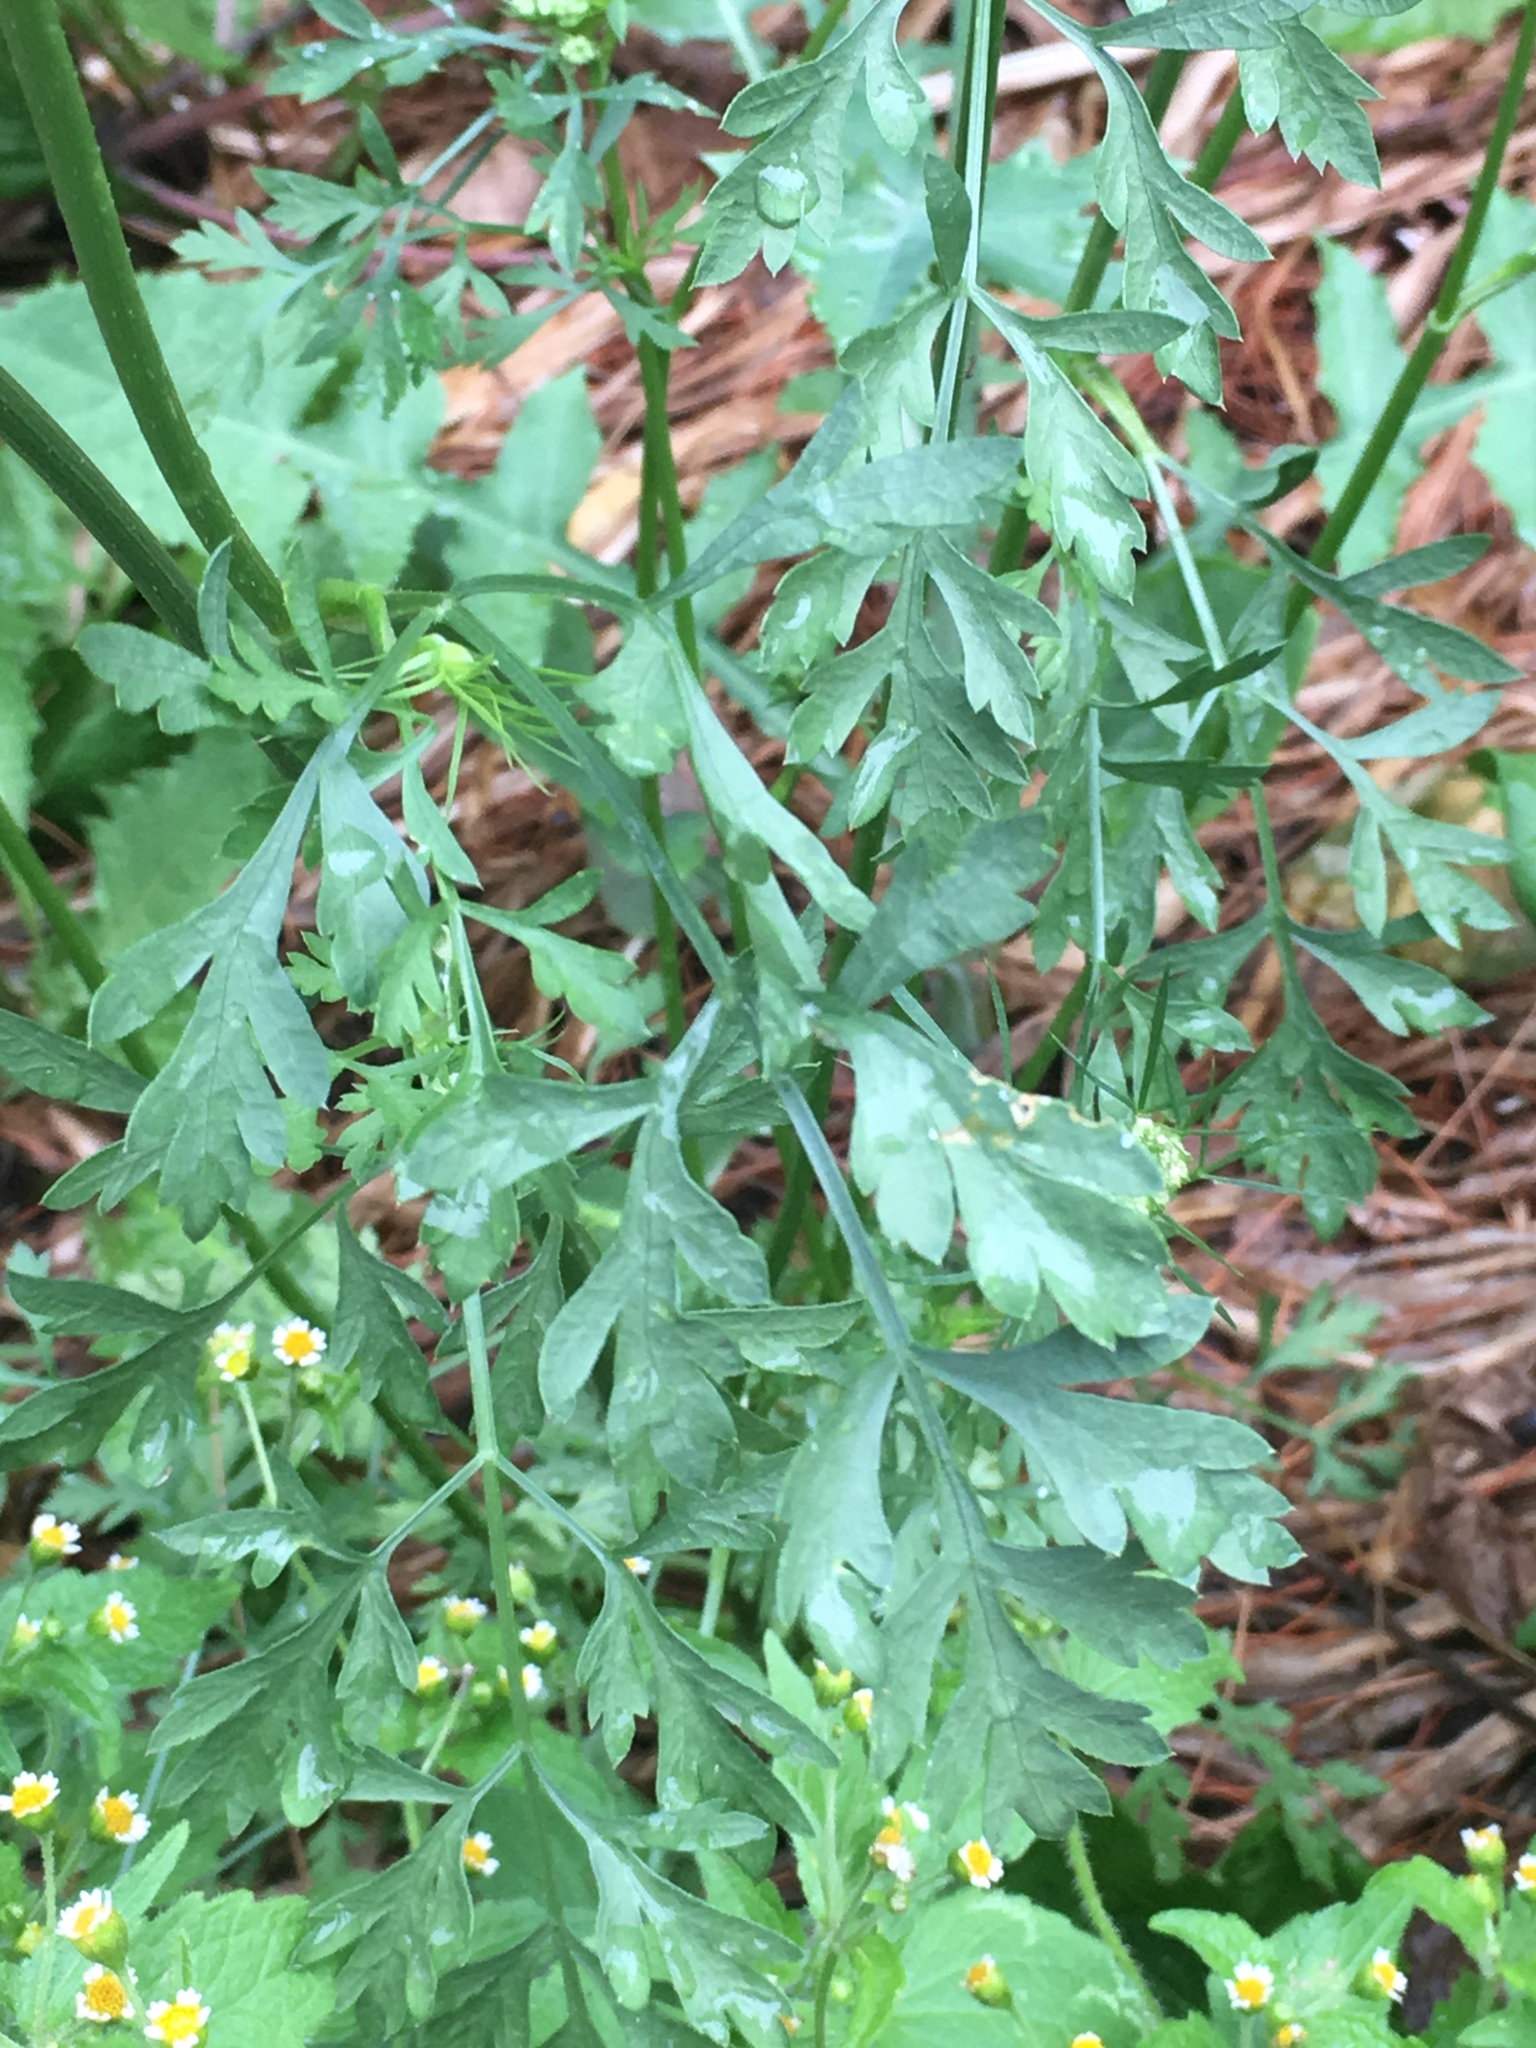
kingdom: Plantae
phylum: Tracheophyta
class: Magnoliopsida
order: Apiales
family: Apiaceae
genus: Daucus
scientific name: Daucus carota
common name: Wild carrot
